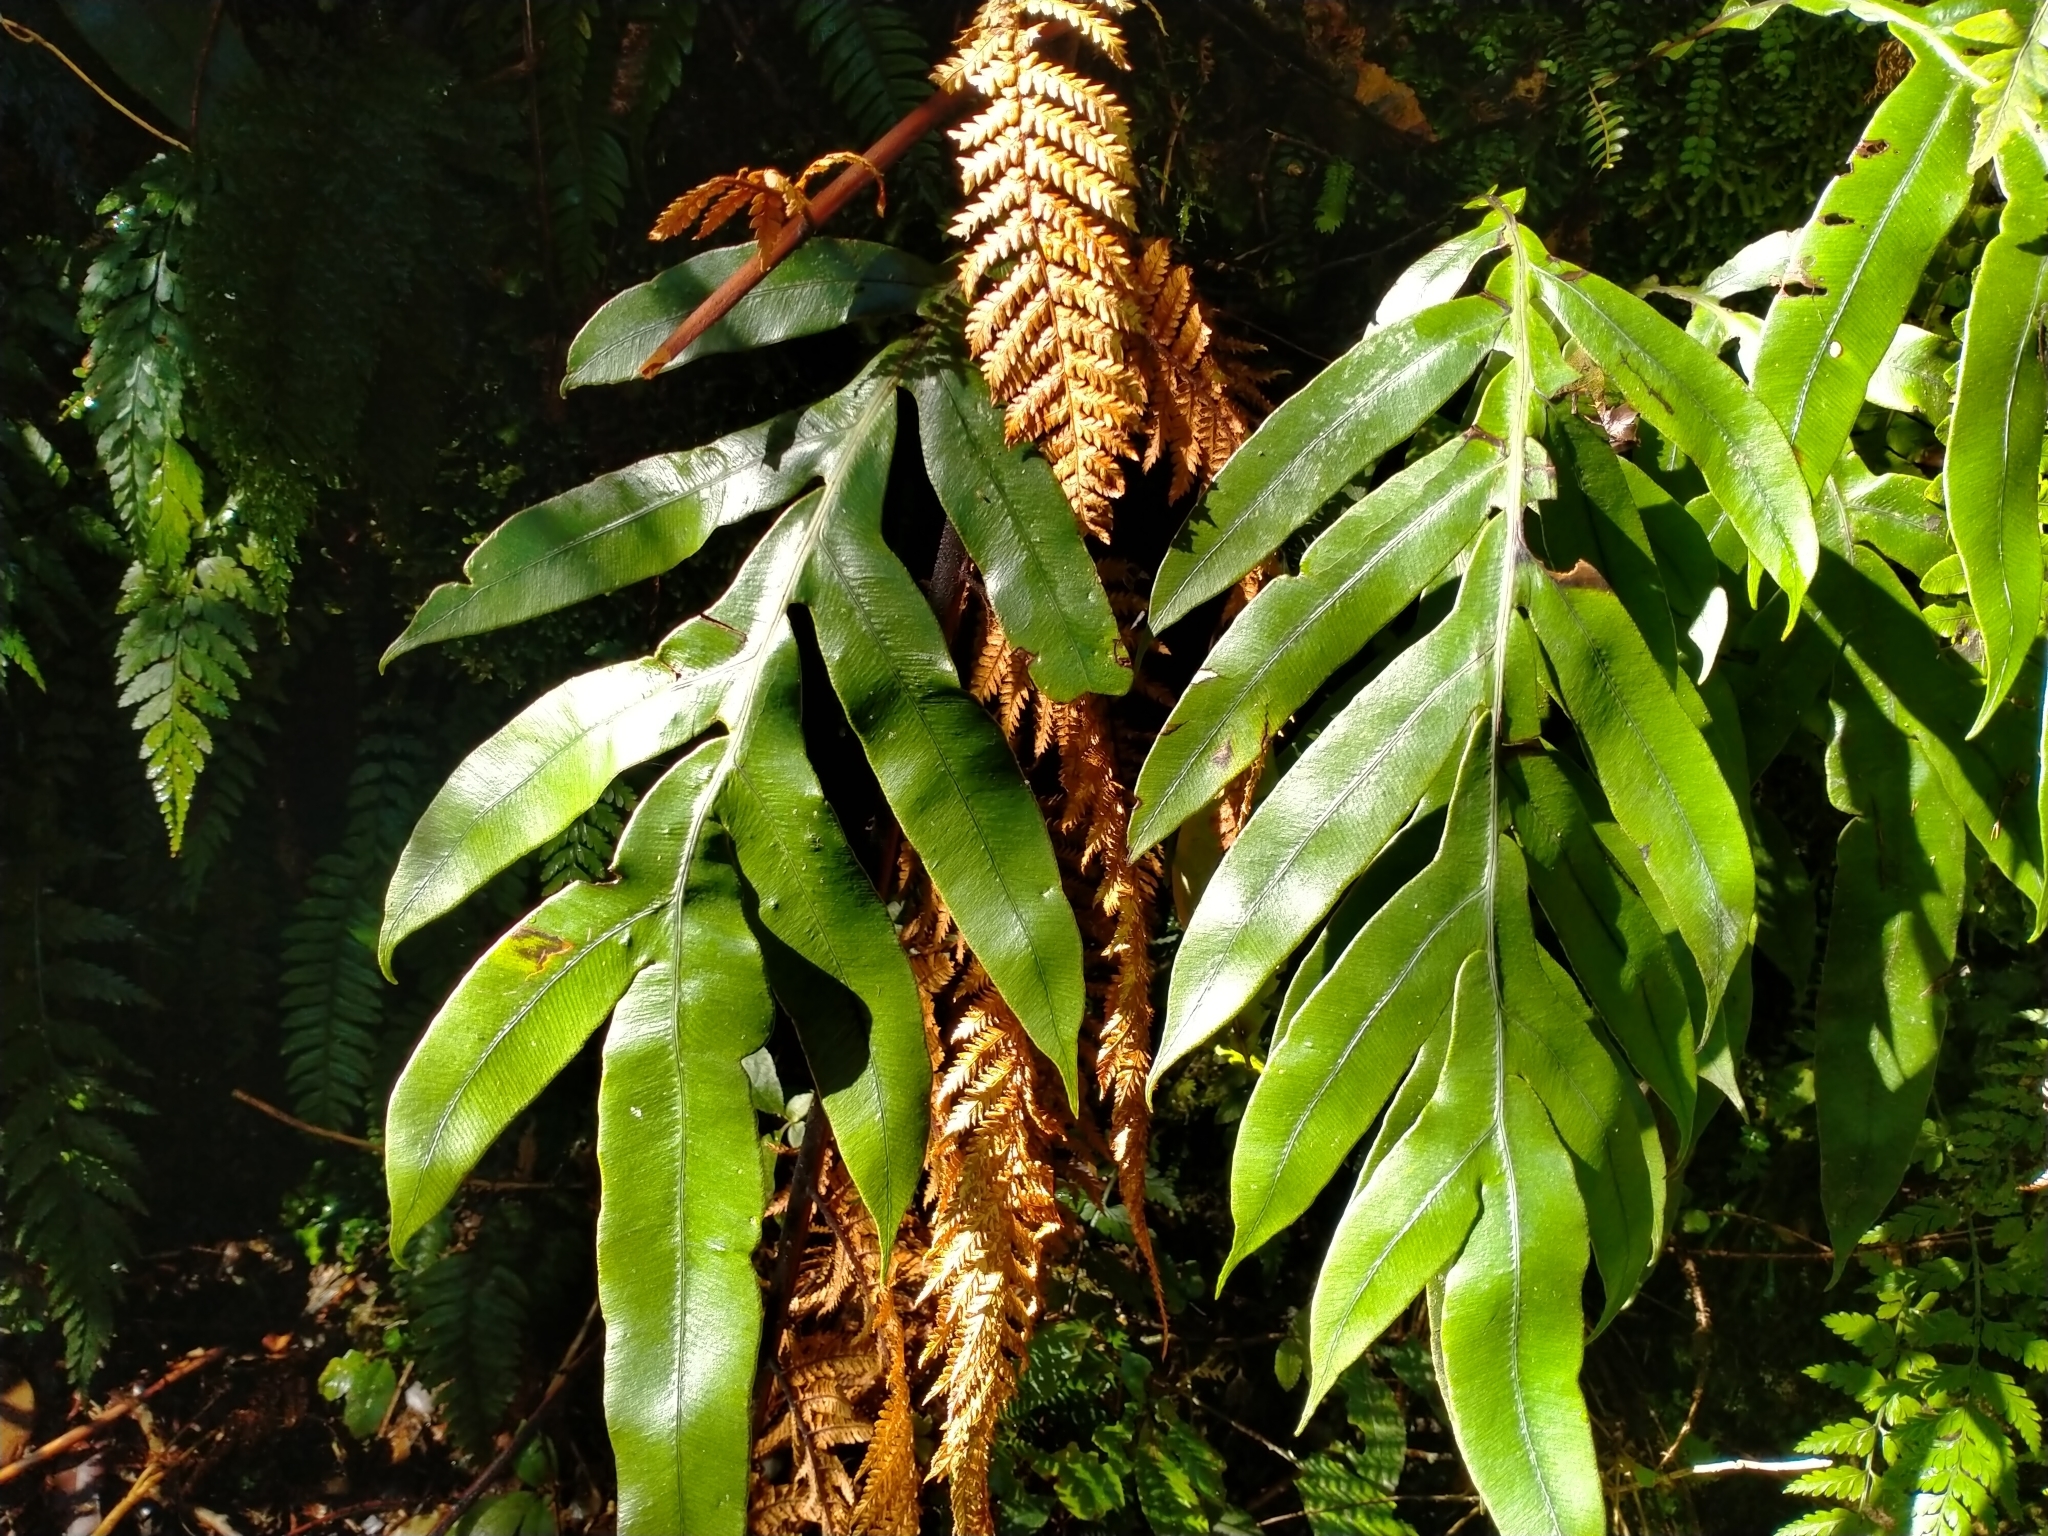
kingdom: Plantae
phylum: Tracheophyta
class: Polypodiopsida
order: Polypodiales
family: Blechnaceae
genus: Austroblechnum
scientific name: Austroblechnum colensoi
